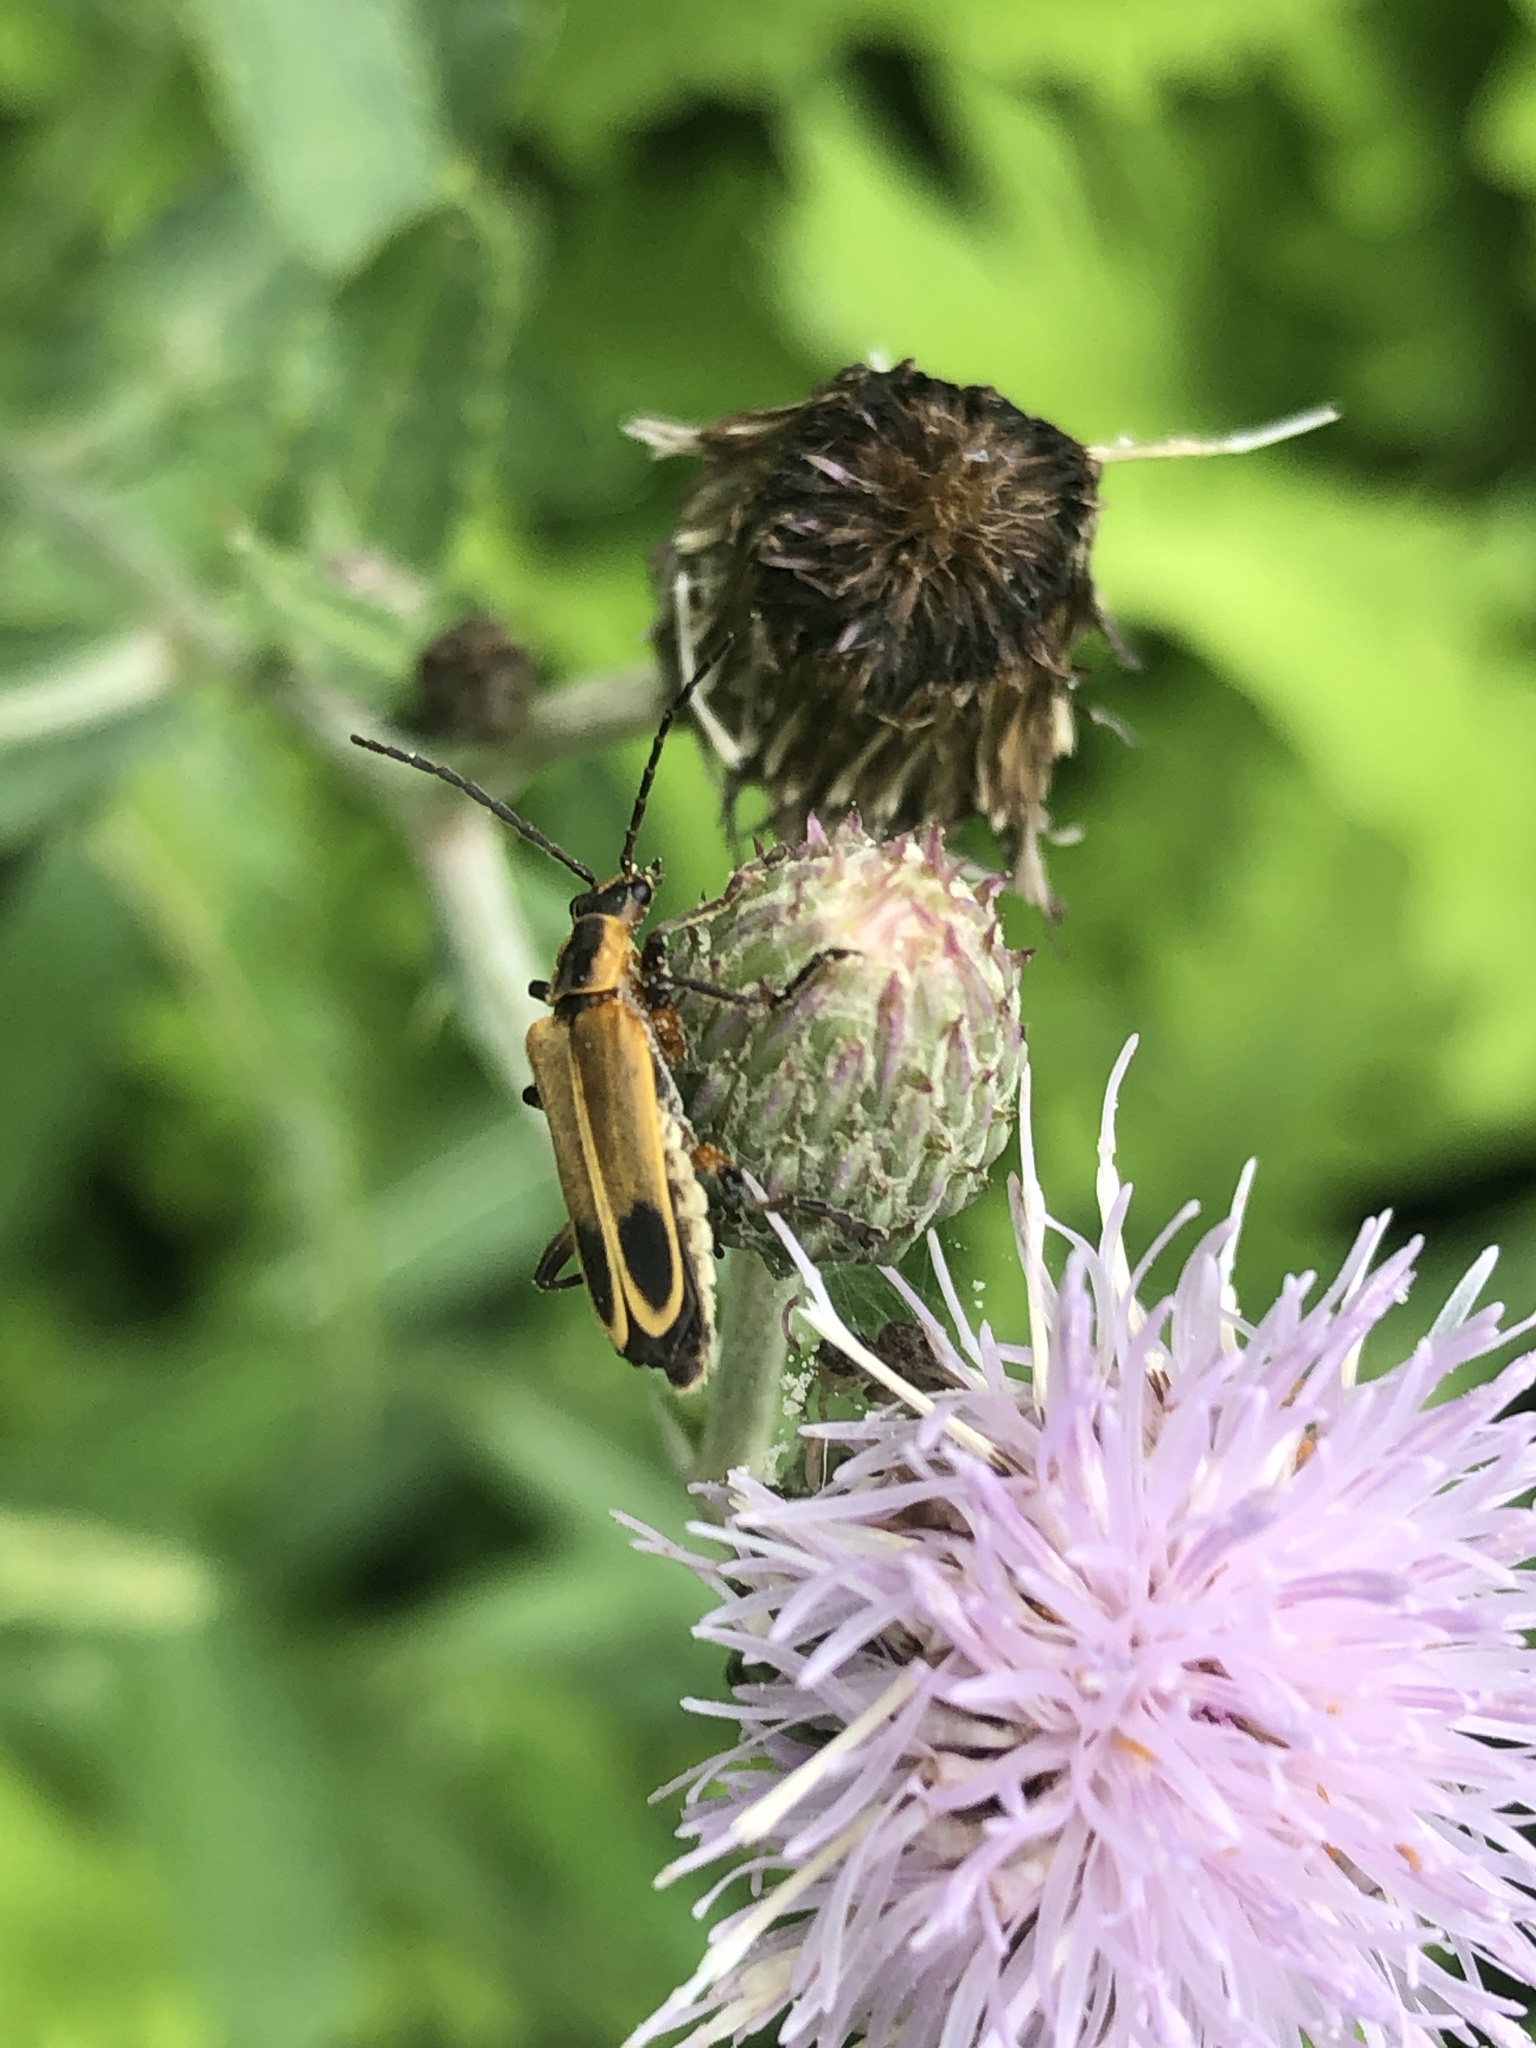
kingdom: Animalia
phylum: Arthropoda
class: Insecta
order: Coleoptera
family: Cantharidae
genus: Chauliognathus
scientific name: Chauliognathus marginatus
